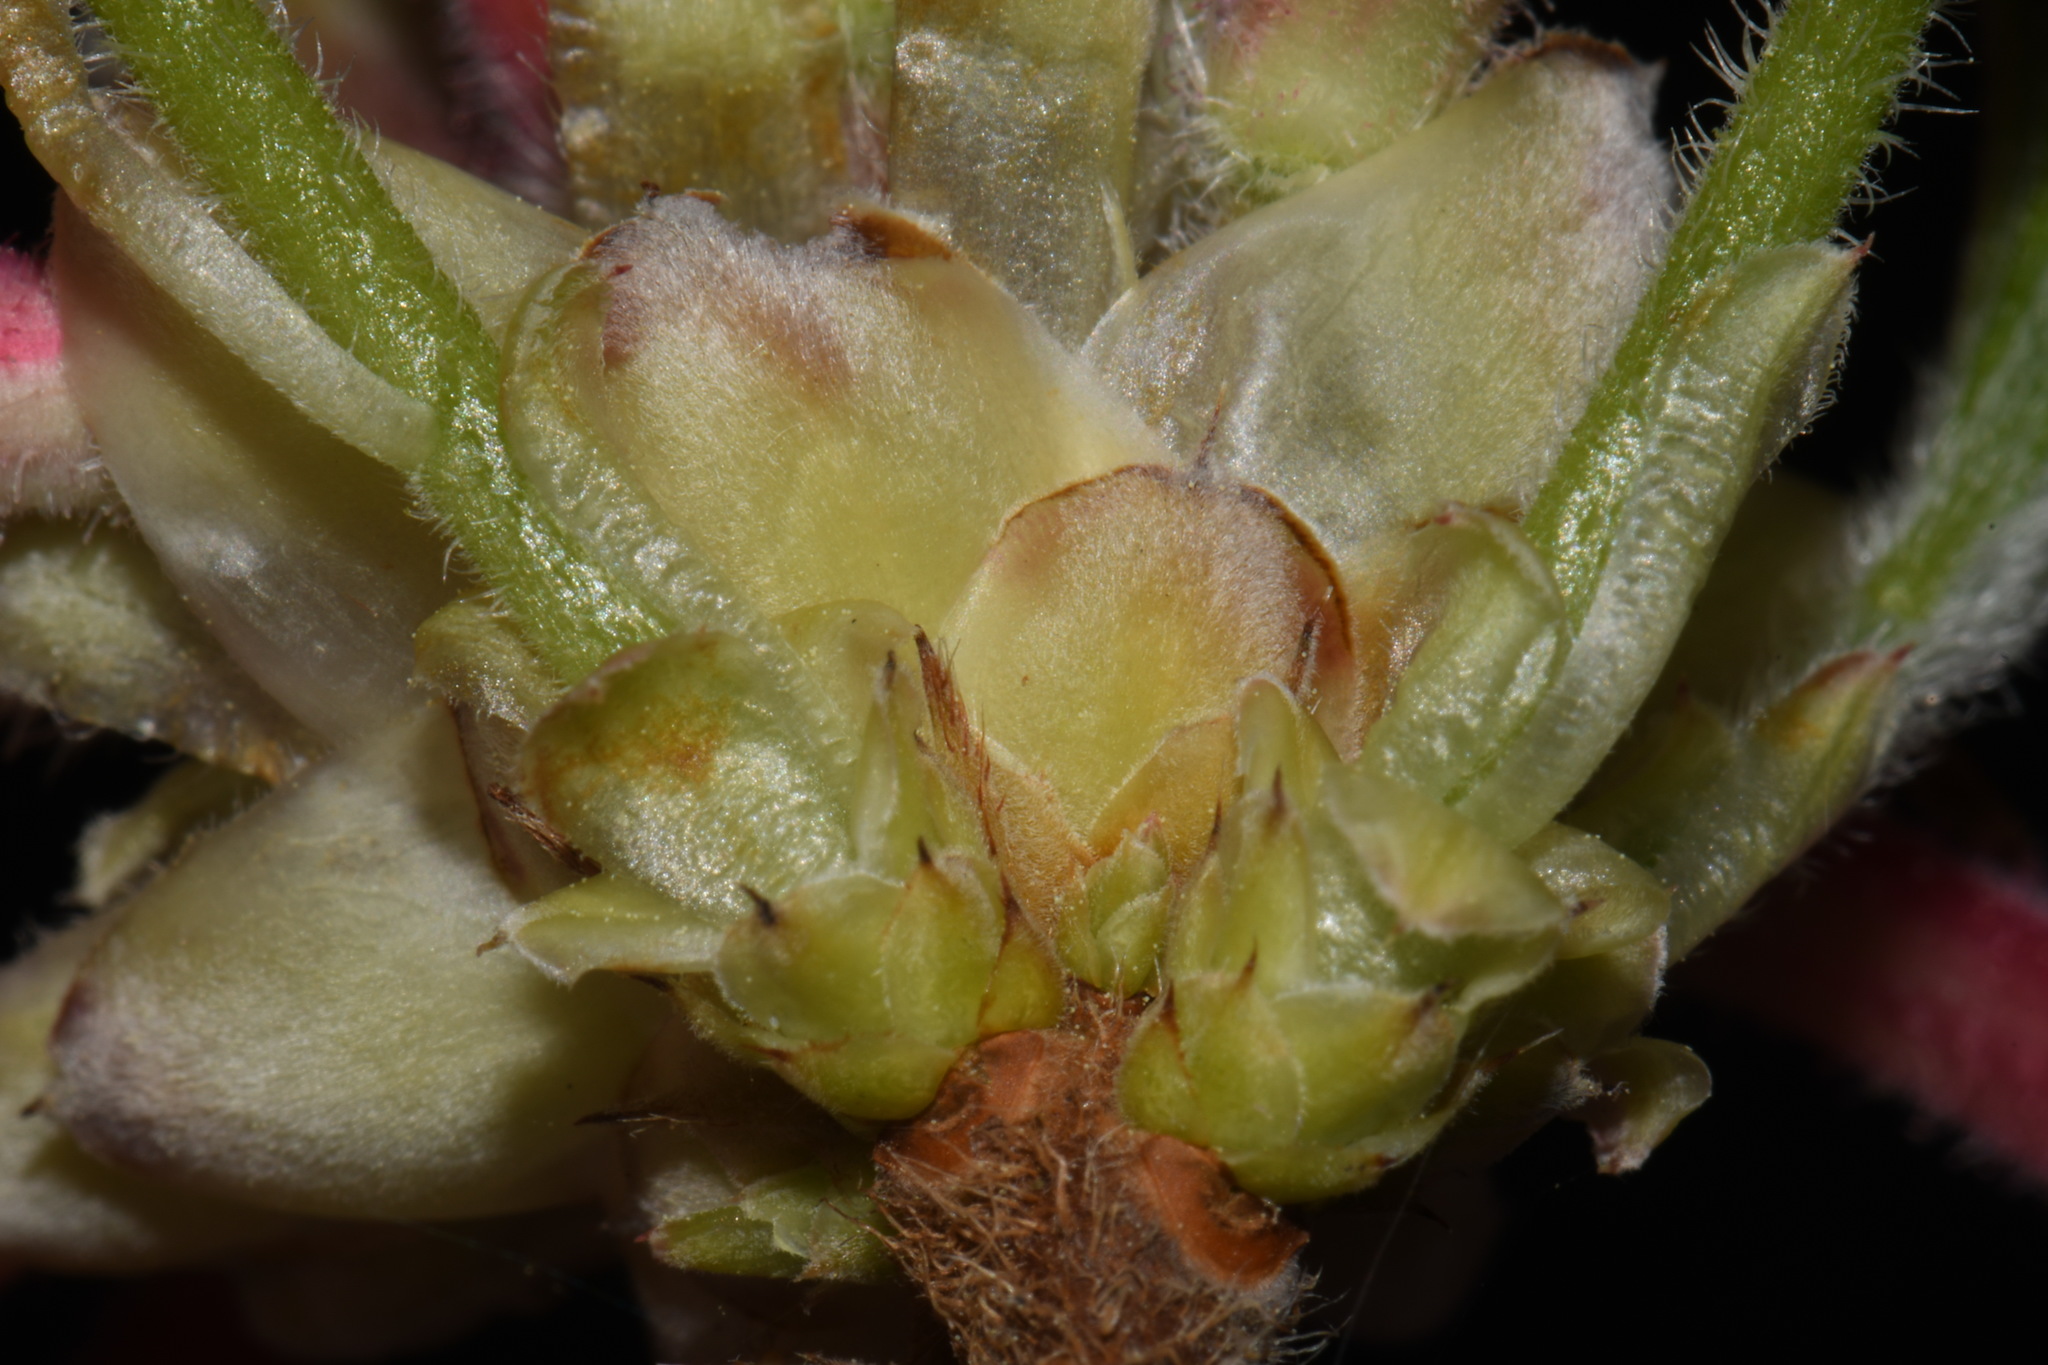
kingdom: Plantae
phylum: Tracheophyta
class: Magnoliopsida
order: Ericales
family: Ericaceae
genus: Rhododendron
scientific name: Rhododendron canescens
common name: Mountain azalea
